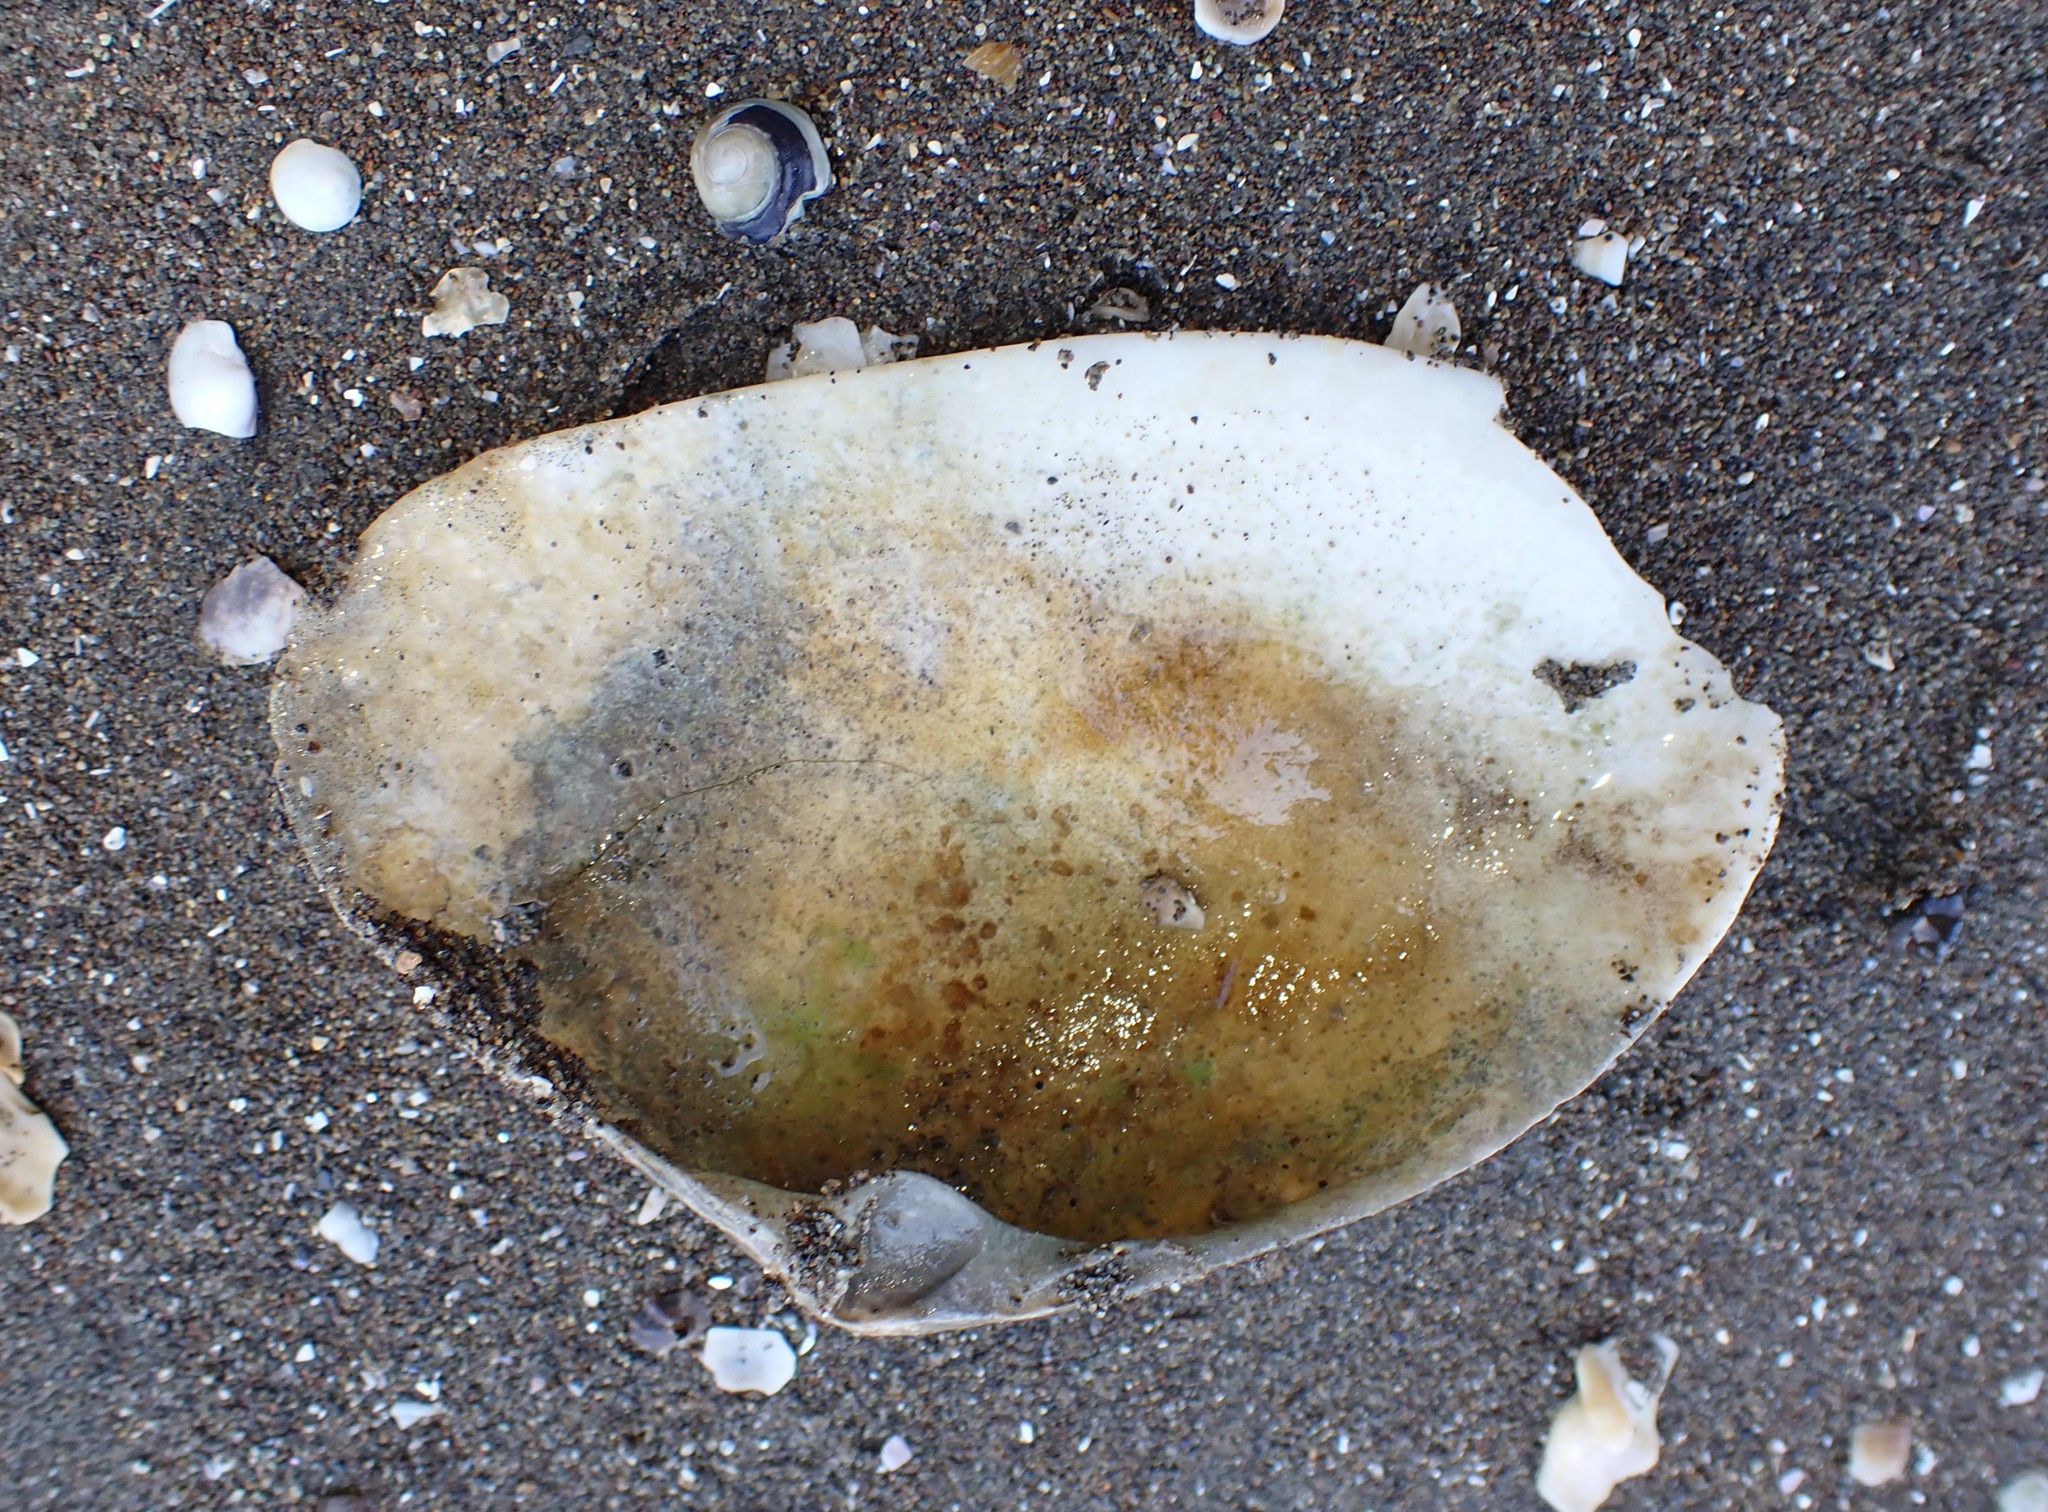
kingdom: Animalia
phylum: Mollusca
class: Bivalvia
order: Venerida
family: Mactridae
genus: Oxyperas
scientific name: Oxyperas elongatum
